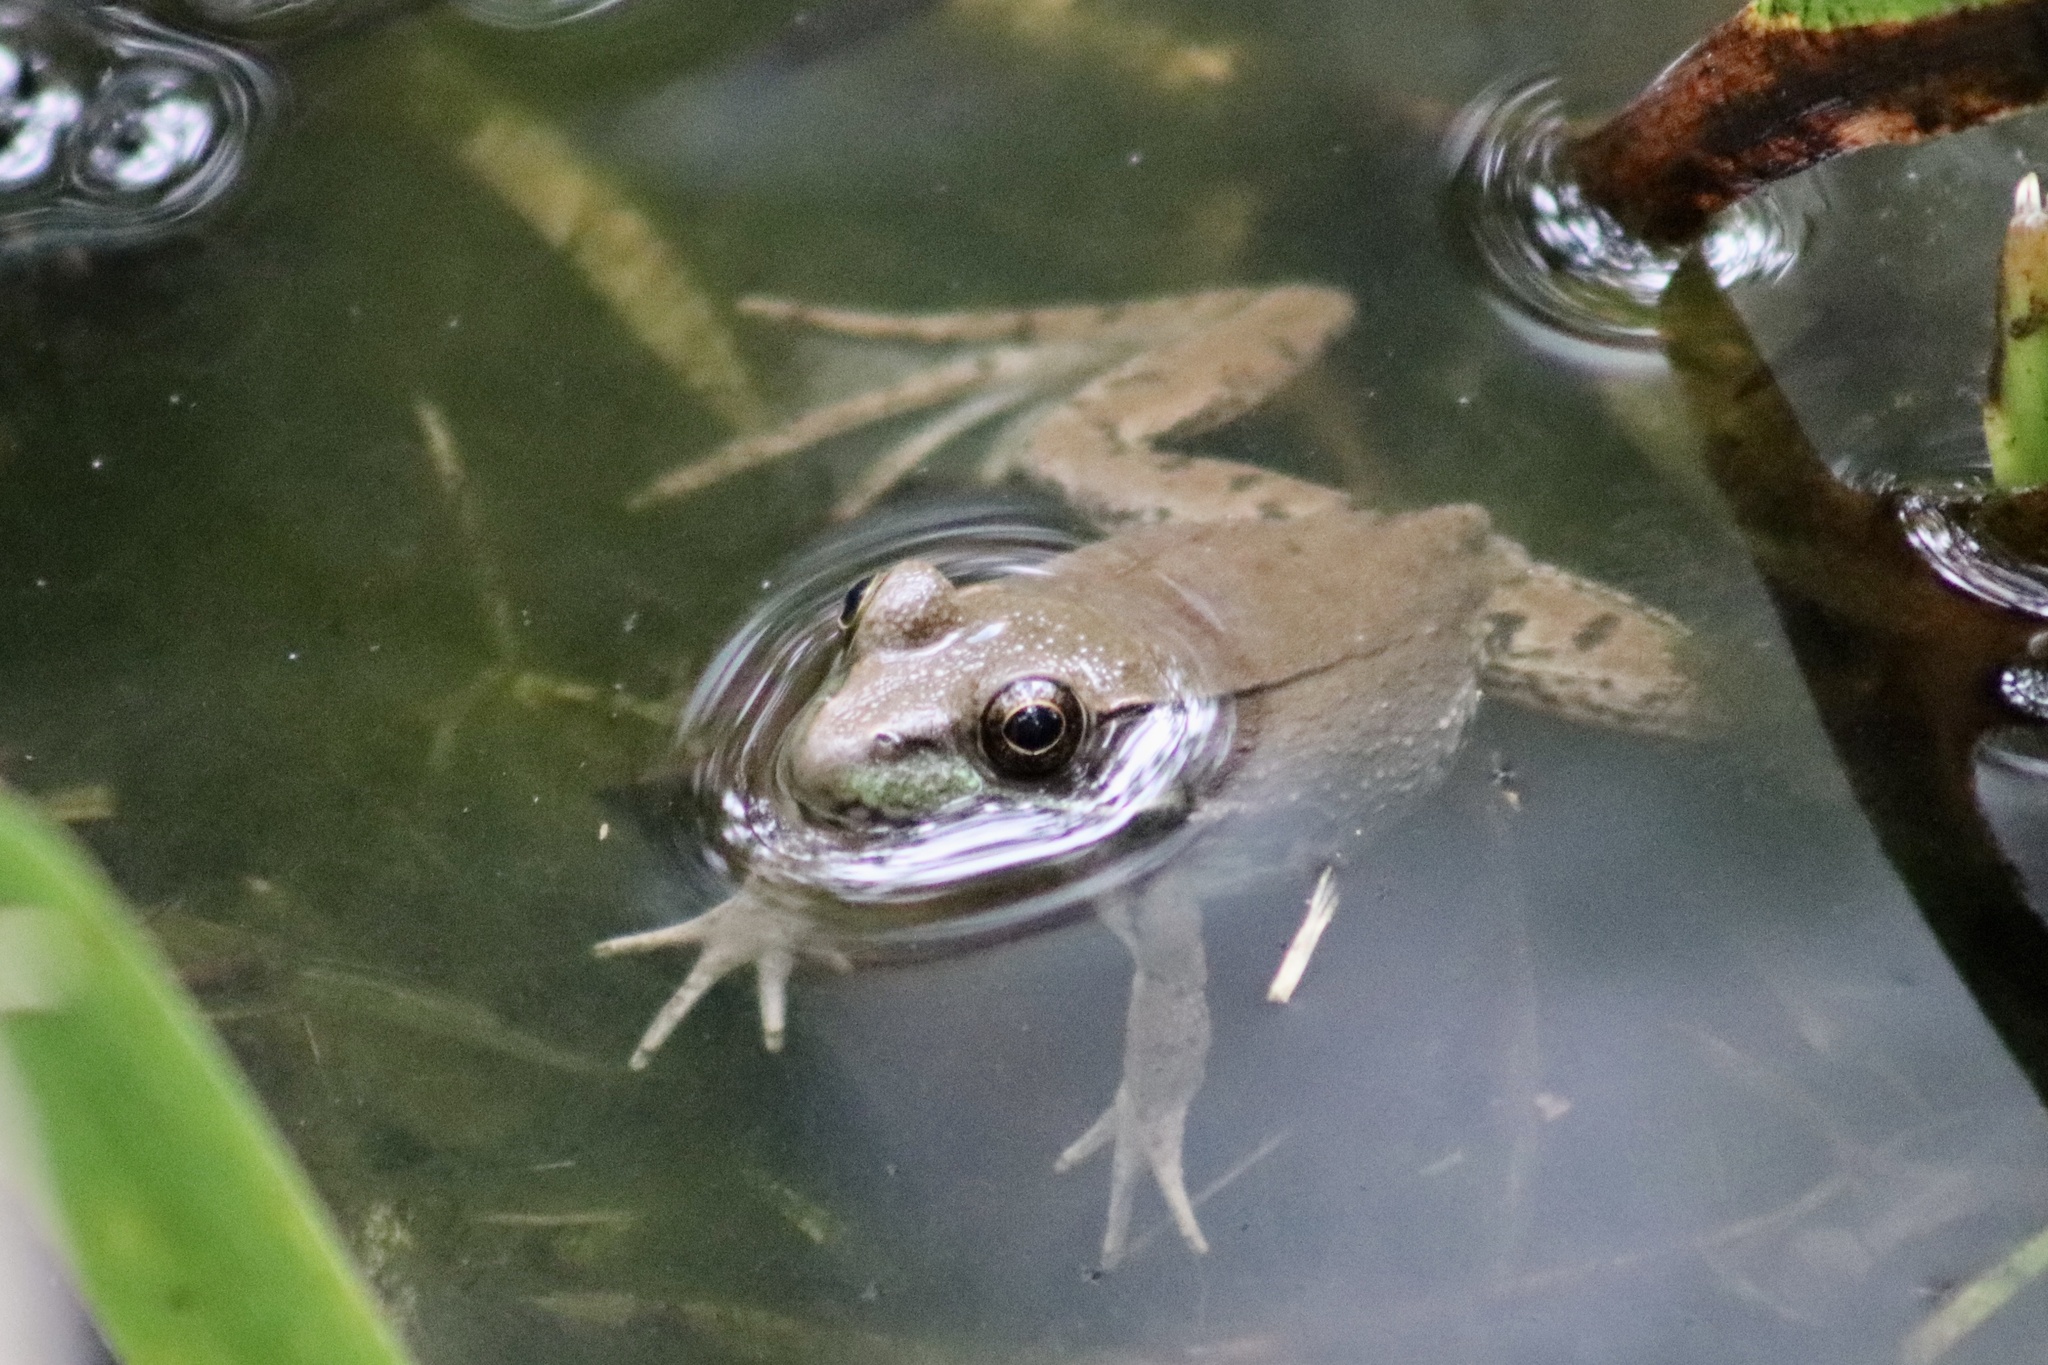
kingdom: Animalia
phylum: Chordata
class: Amphibia
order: Anura
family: Ranidae
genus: Lithobates
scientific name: Lithobates clamitans
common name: Green frog
